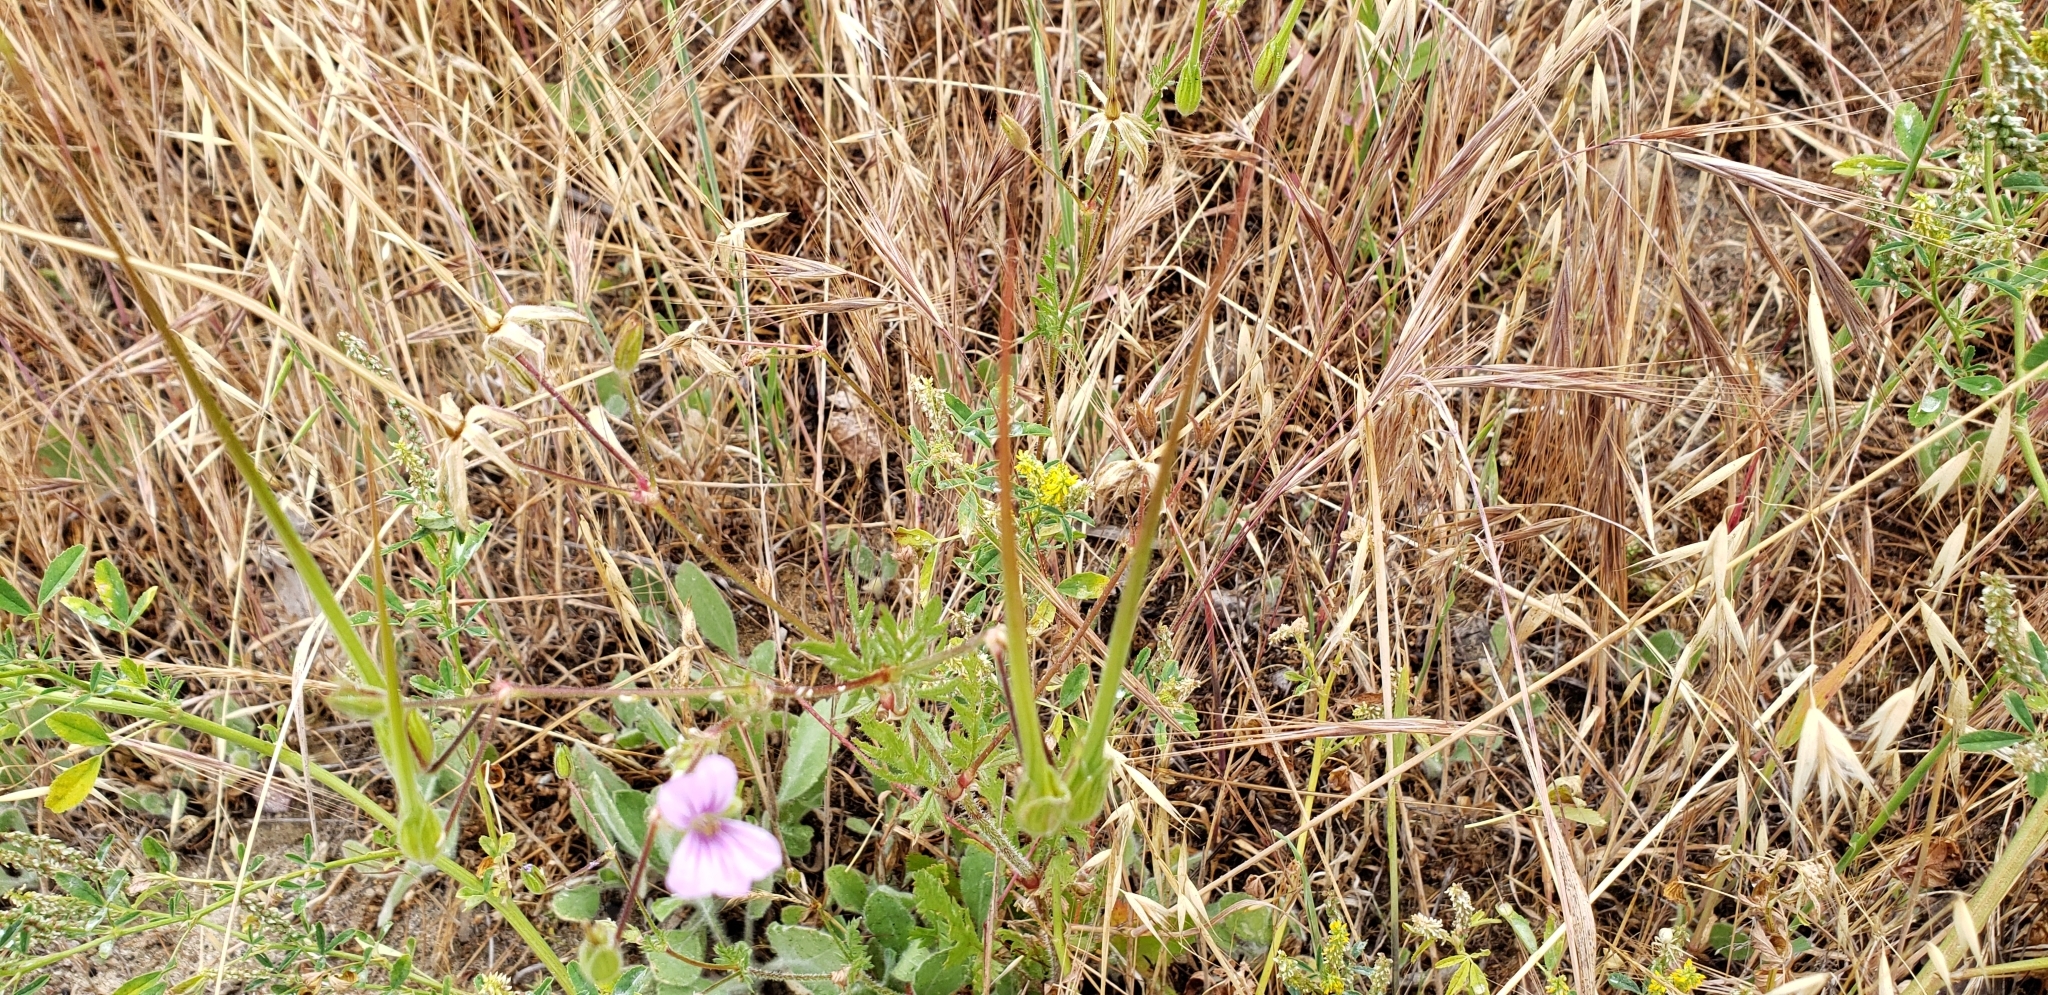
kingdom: Plantae
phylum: Tracheophyta
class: Magnoliopsida
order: Geraniales
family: Geraniaceae
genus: Erodium
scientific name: Erodium botrys
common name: Mediterranean stork's-bill
